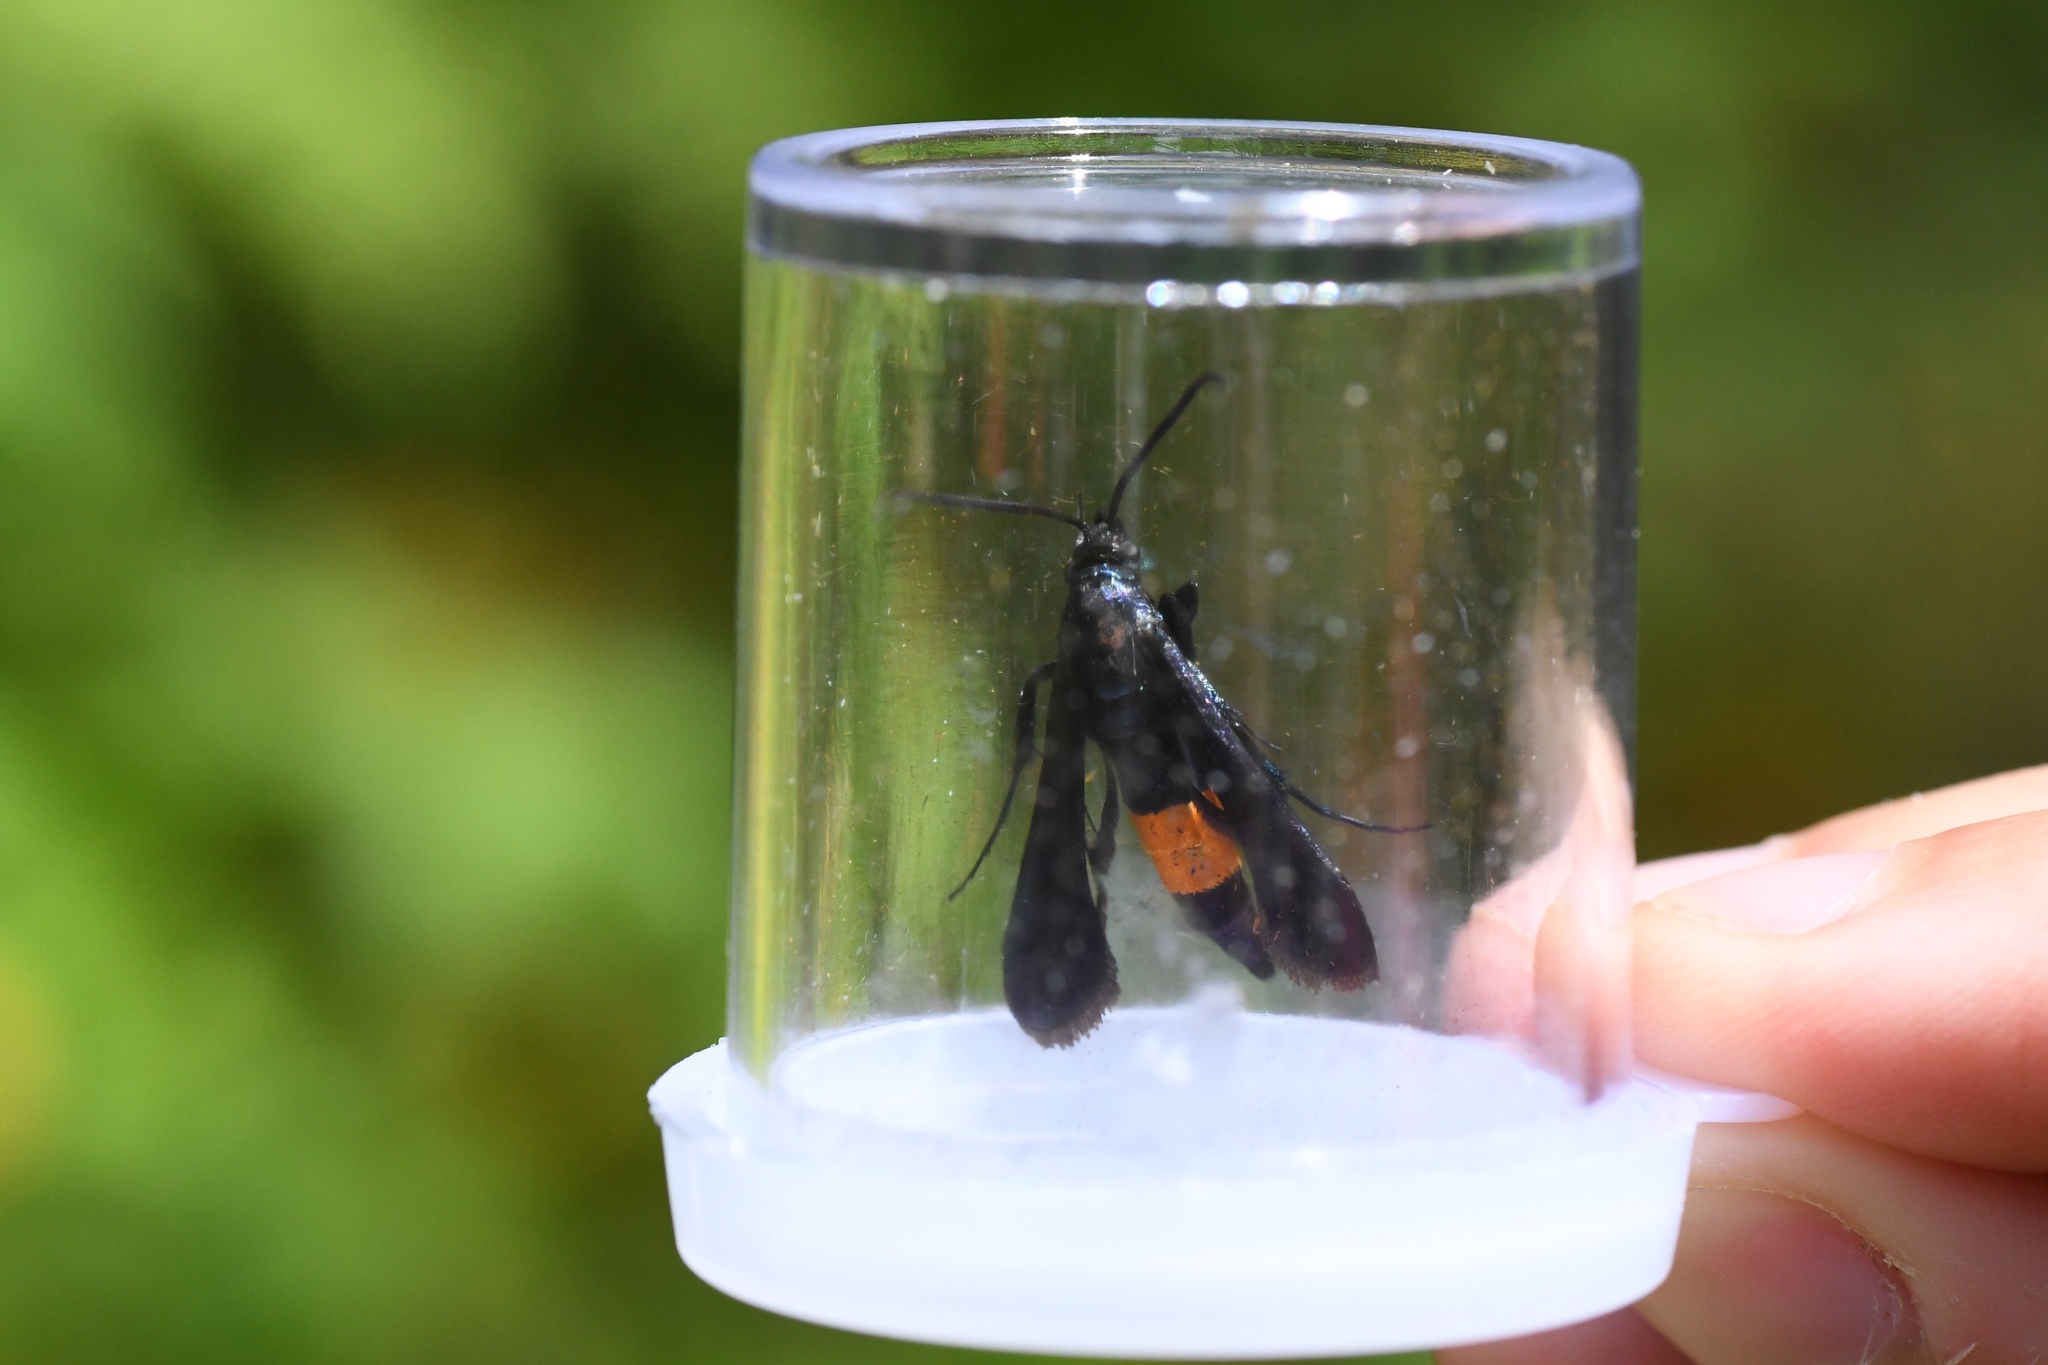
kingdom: Animalia
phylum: Arthropoda
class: Insecta
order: Lepidoptera
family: Sesiidae
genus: Synanthedon
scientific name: Synanthedon exitiosa
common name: Peachtree borer moth
